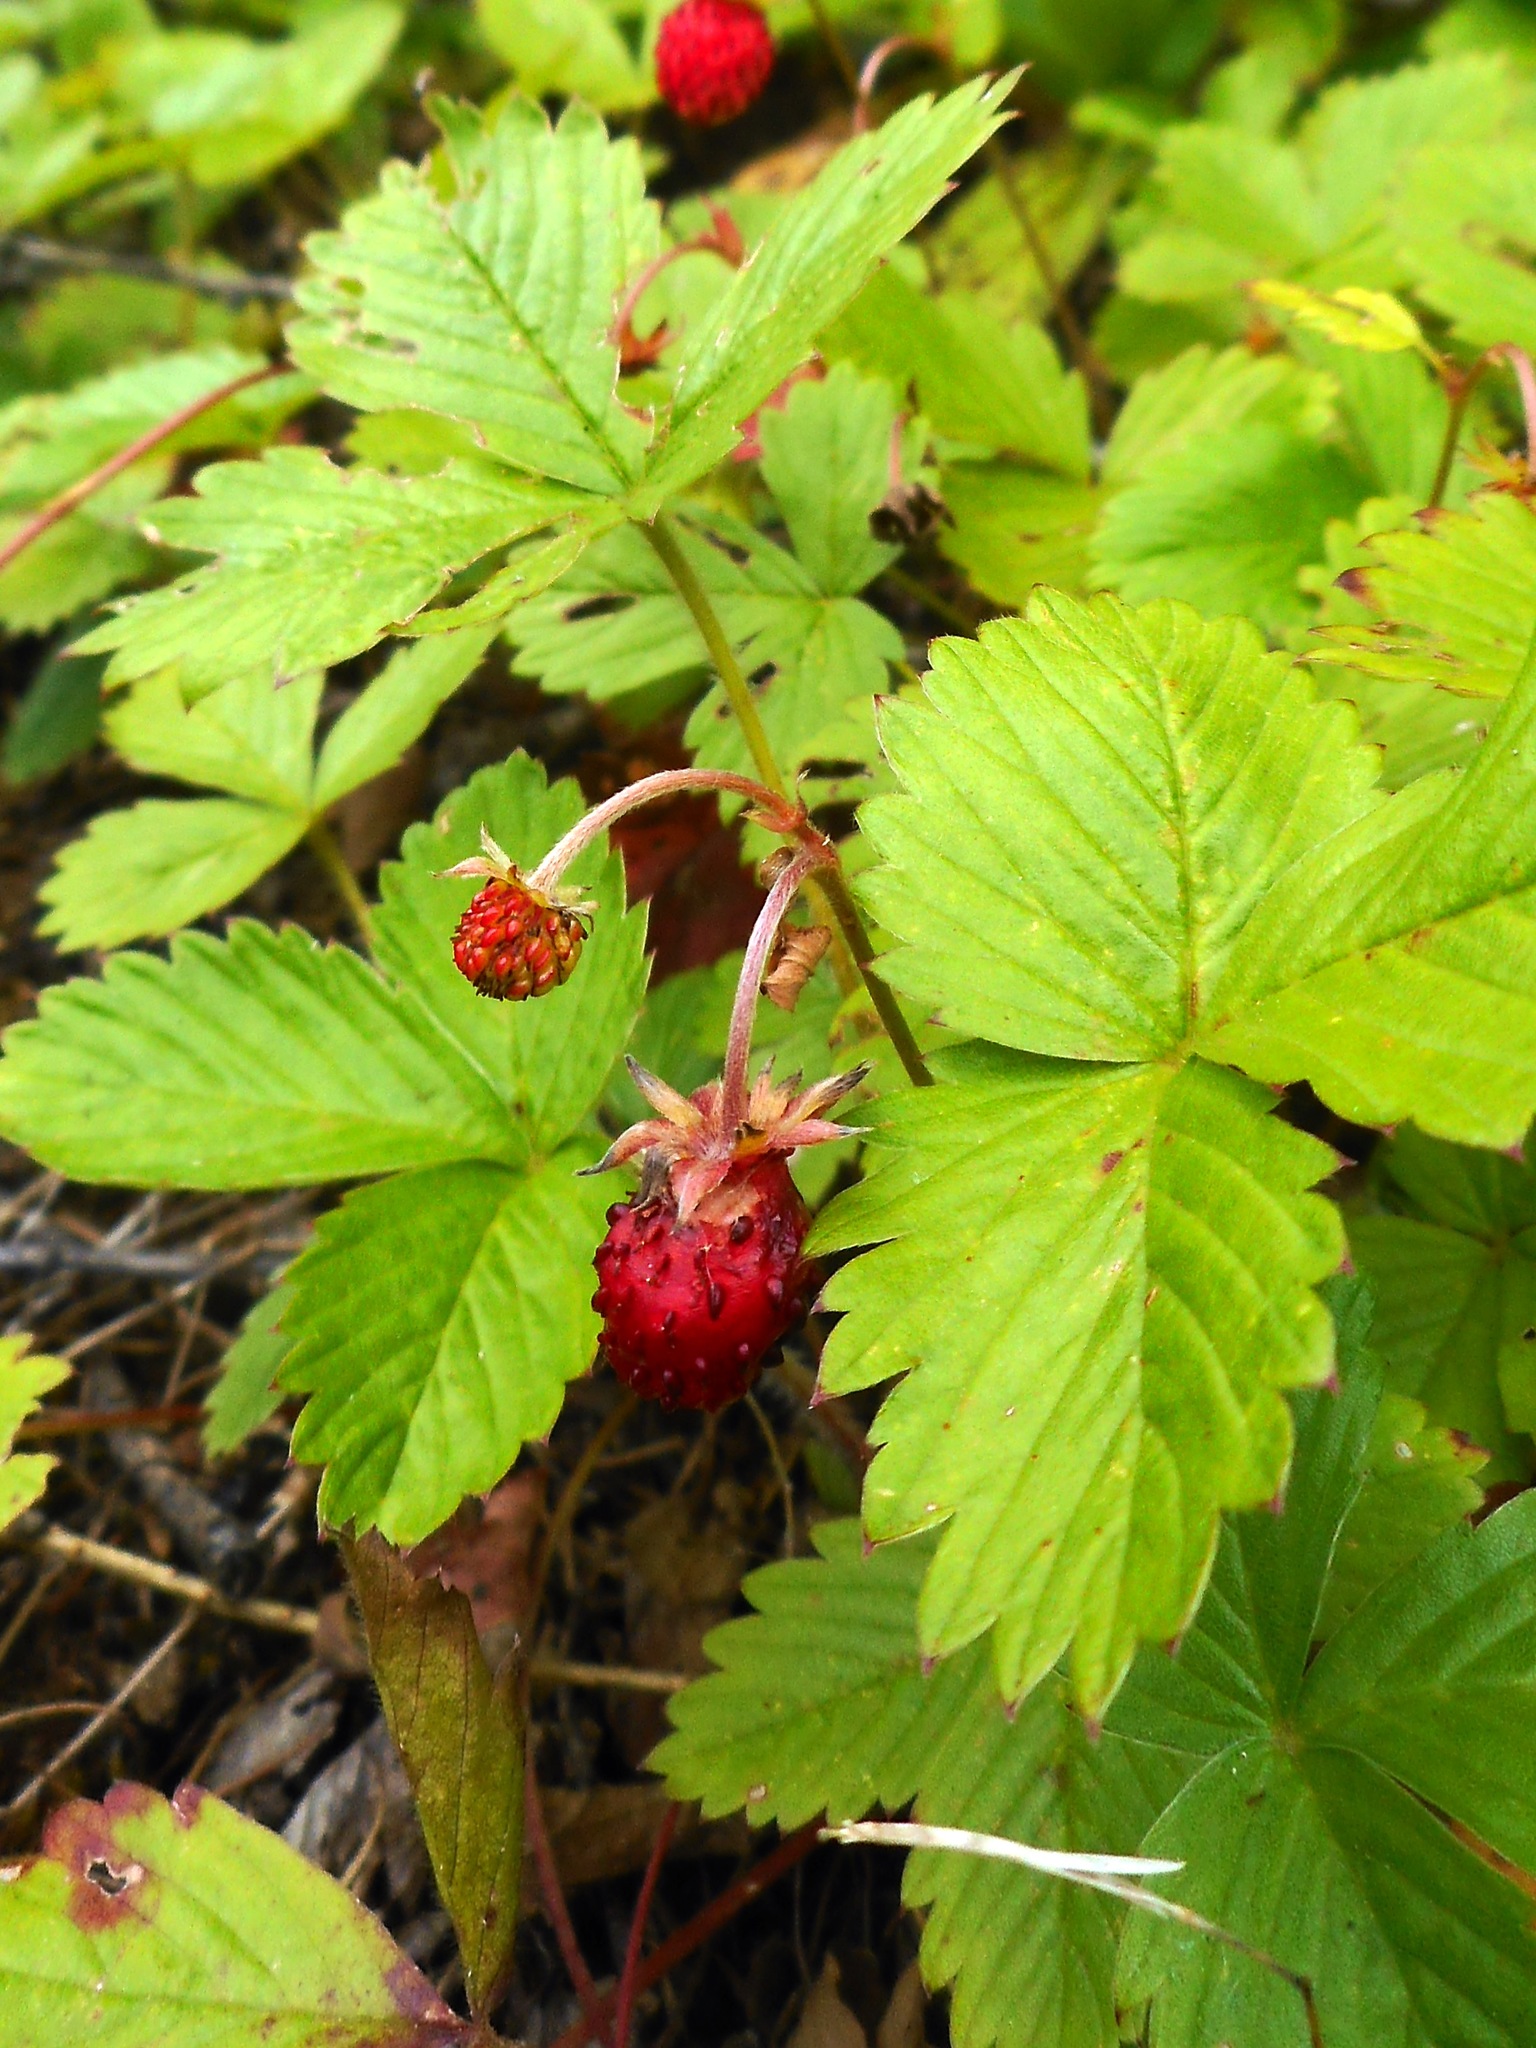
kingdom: Plantae
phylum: Tracheophyta
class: Magnoliopsida
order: Rosales
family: Rosaceae
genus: Fragaria
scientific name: Fragaria vesca
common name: Wild strawberry
